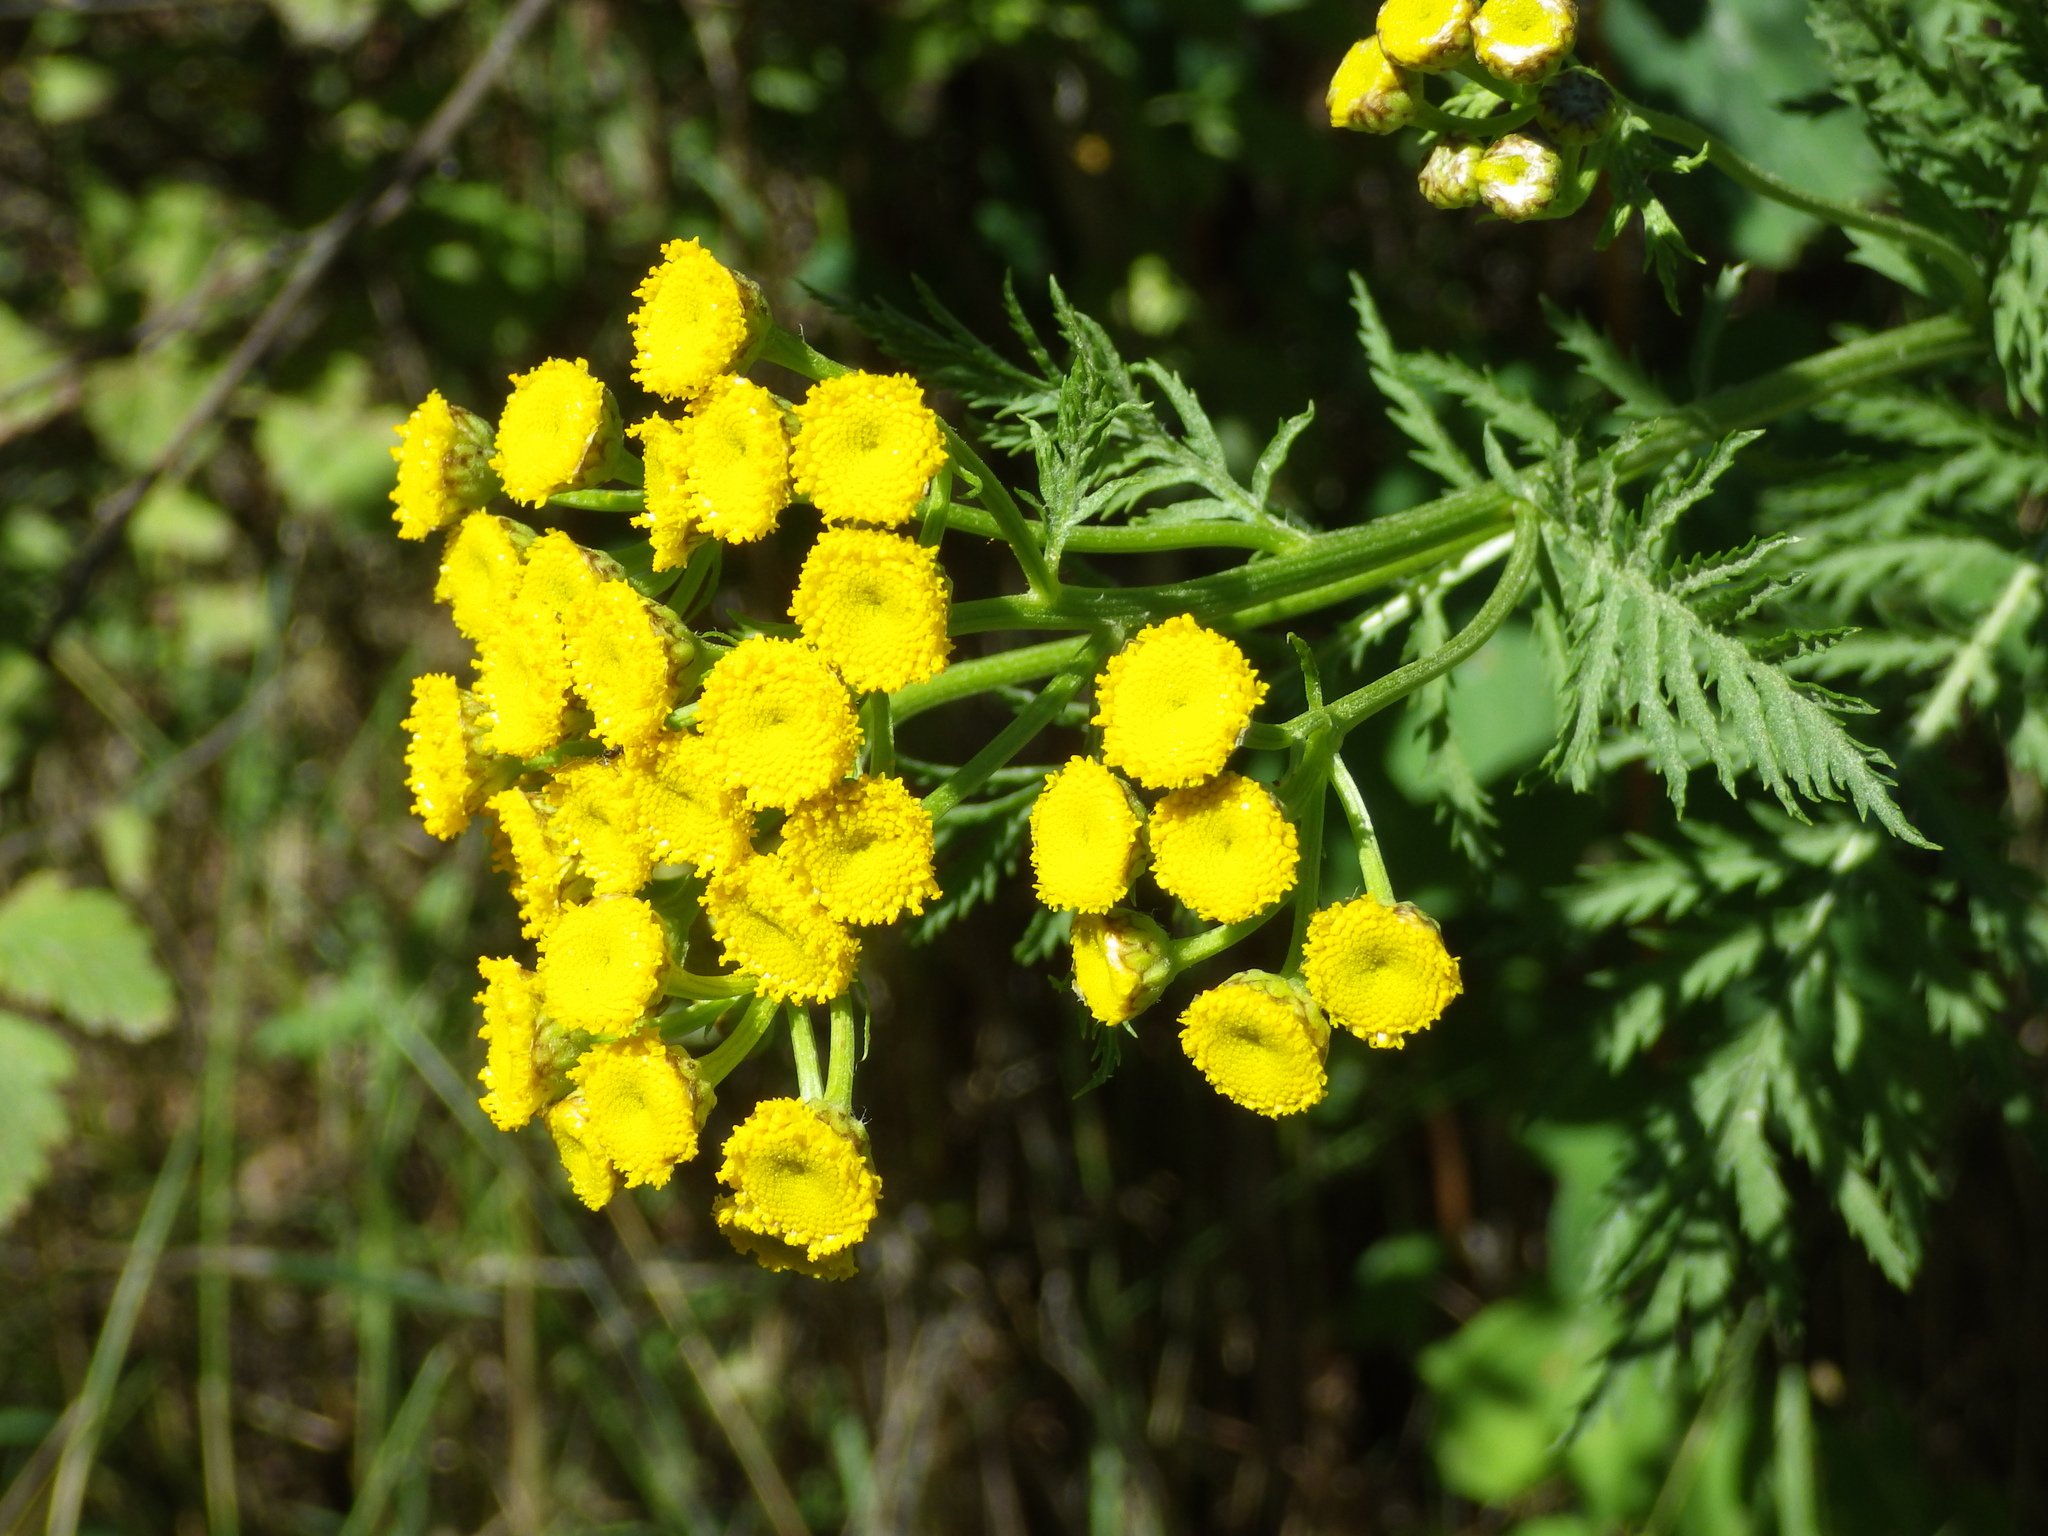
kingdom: Plantae
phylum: Tracheophyta
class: Magnoliopsida
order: Asterales
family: Asteraceae
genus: Tanacetum
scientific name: Tanacetum vulgare
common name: Common tansy
